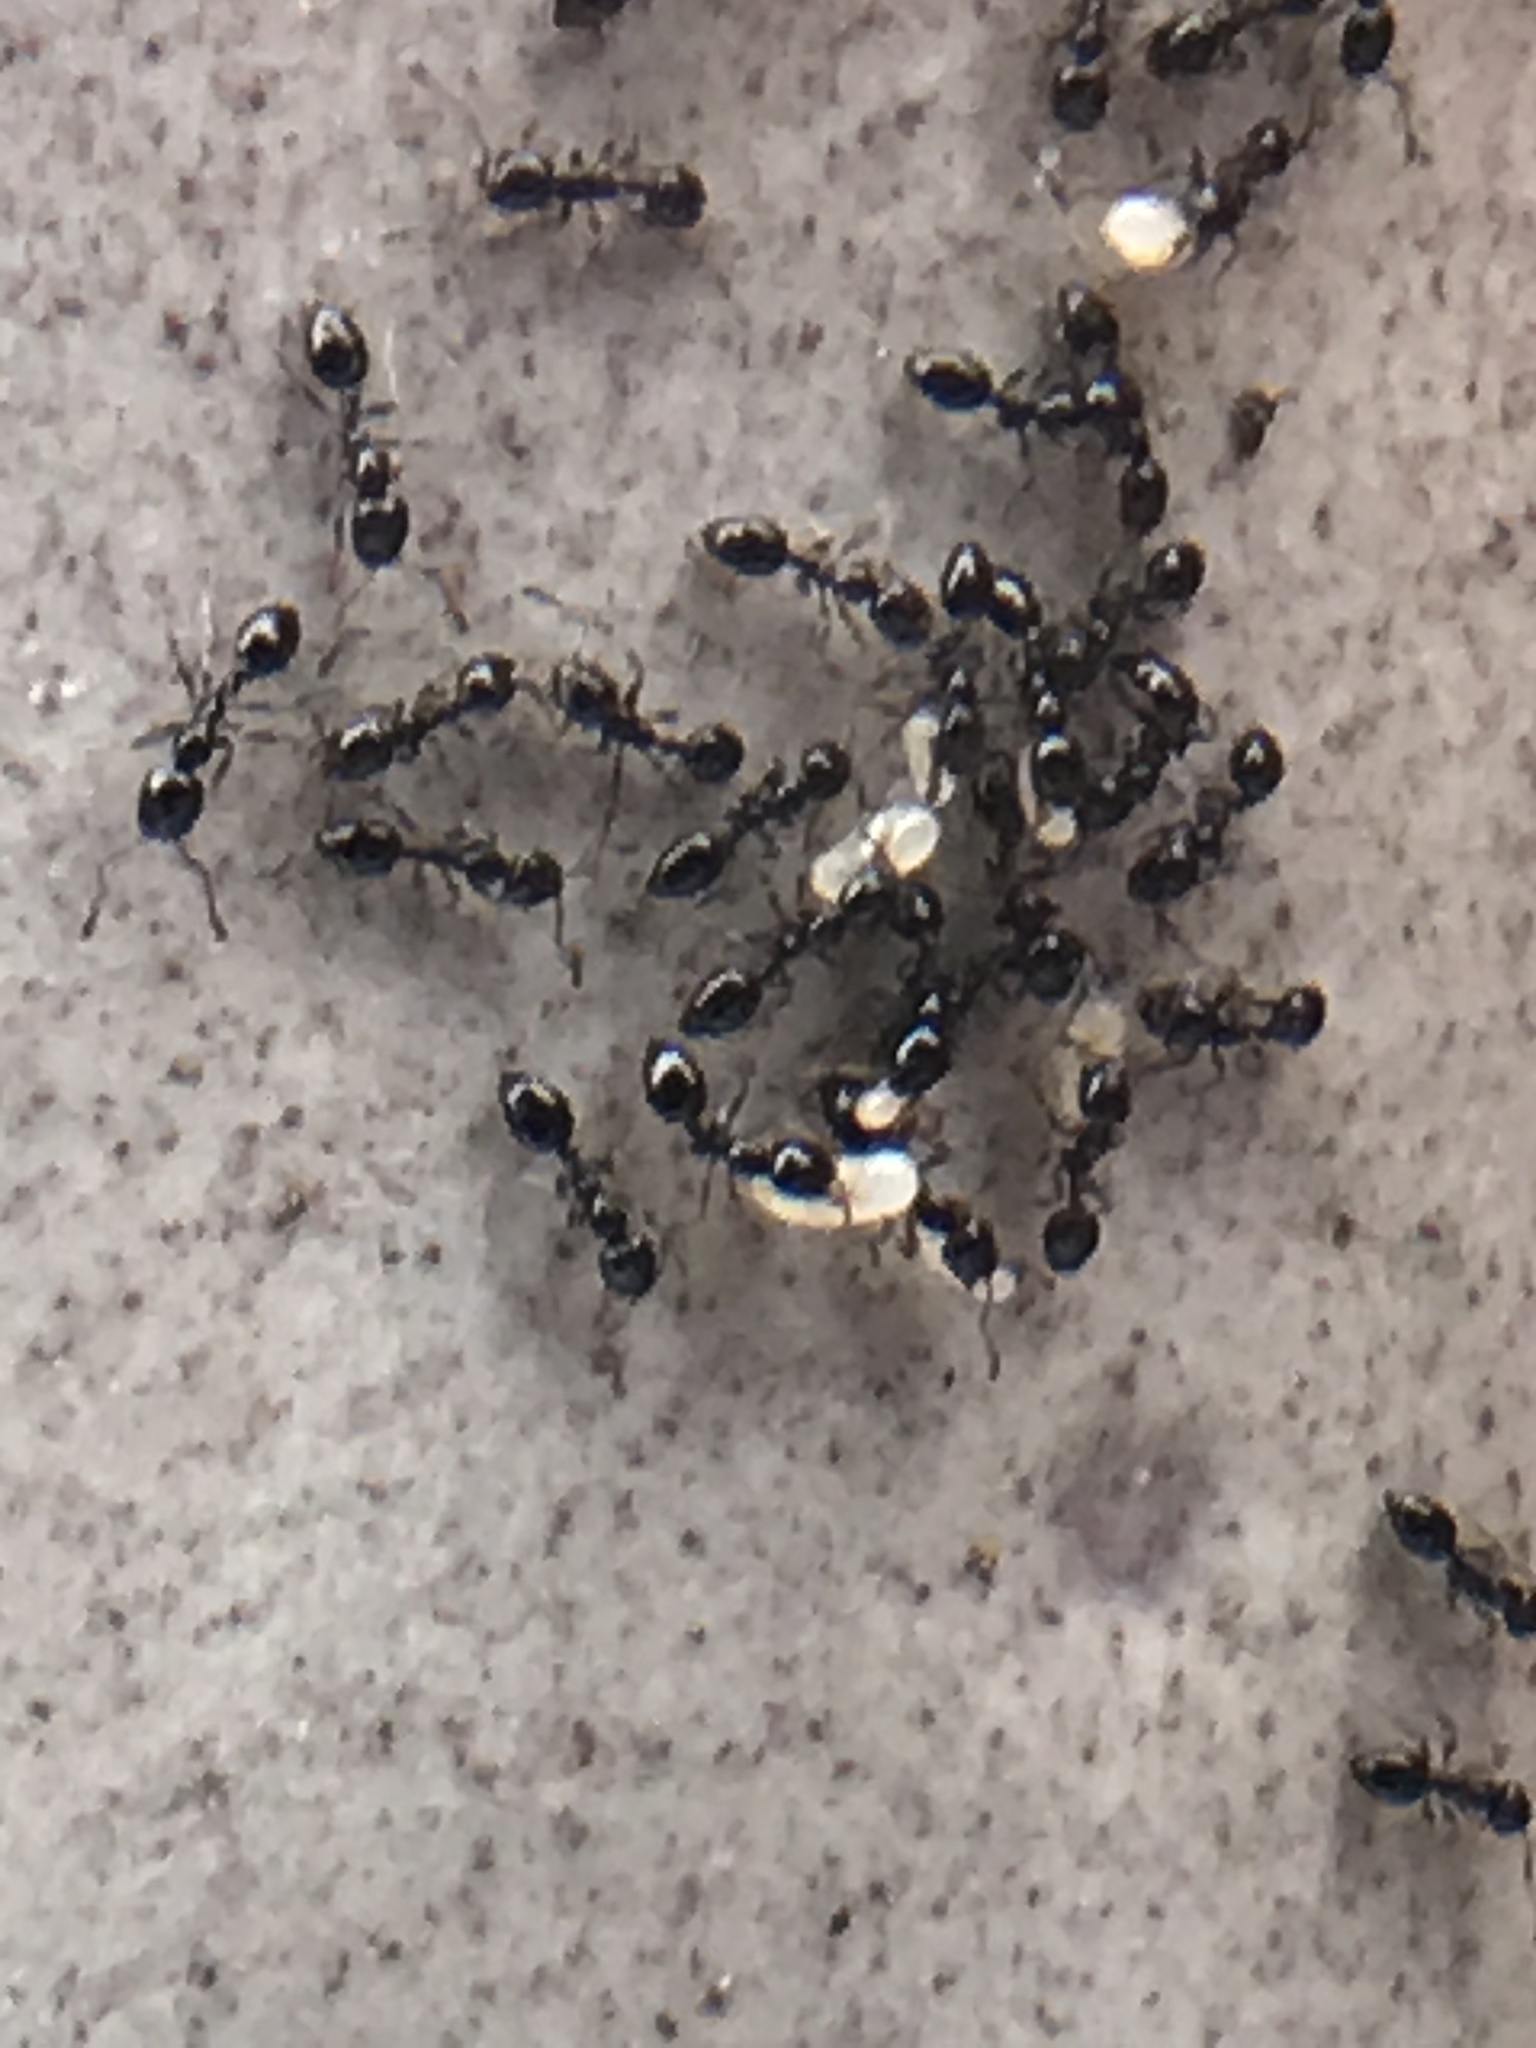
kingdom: Animalia
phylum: Arthropoda
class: Insecta
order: Hymenoptera
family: Formicidae
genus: Monomorium
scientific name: Monomorium ergatogyna
